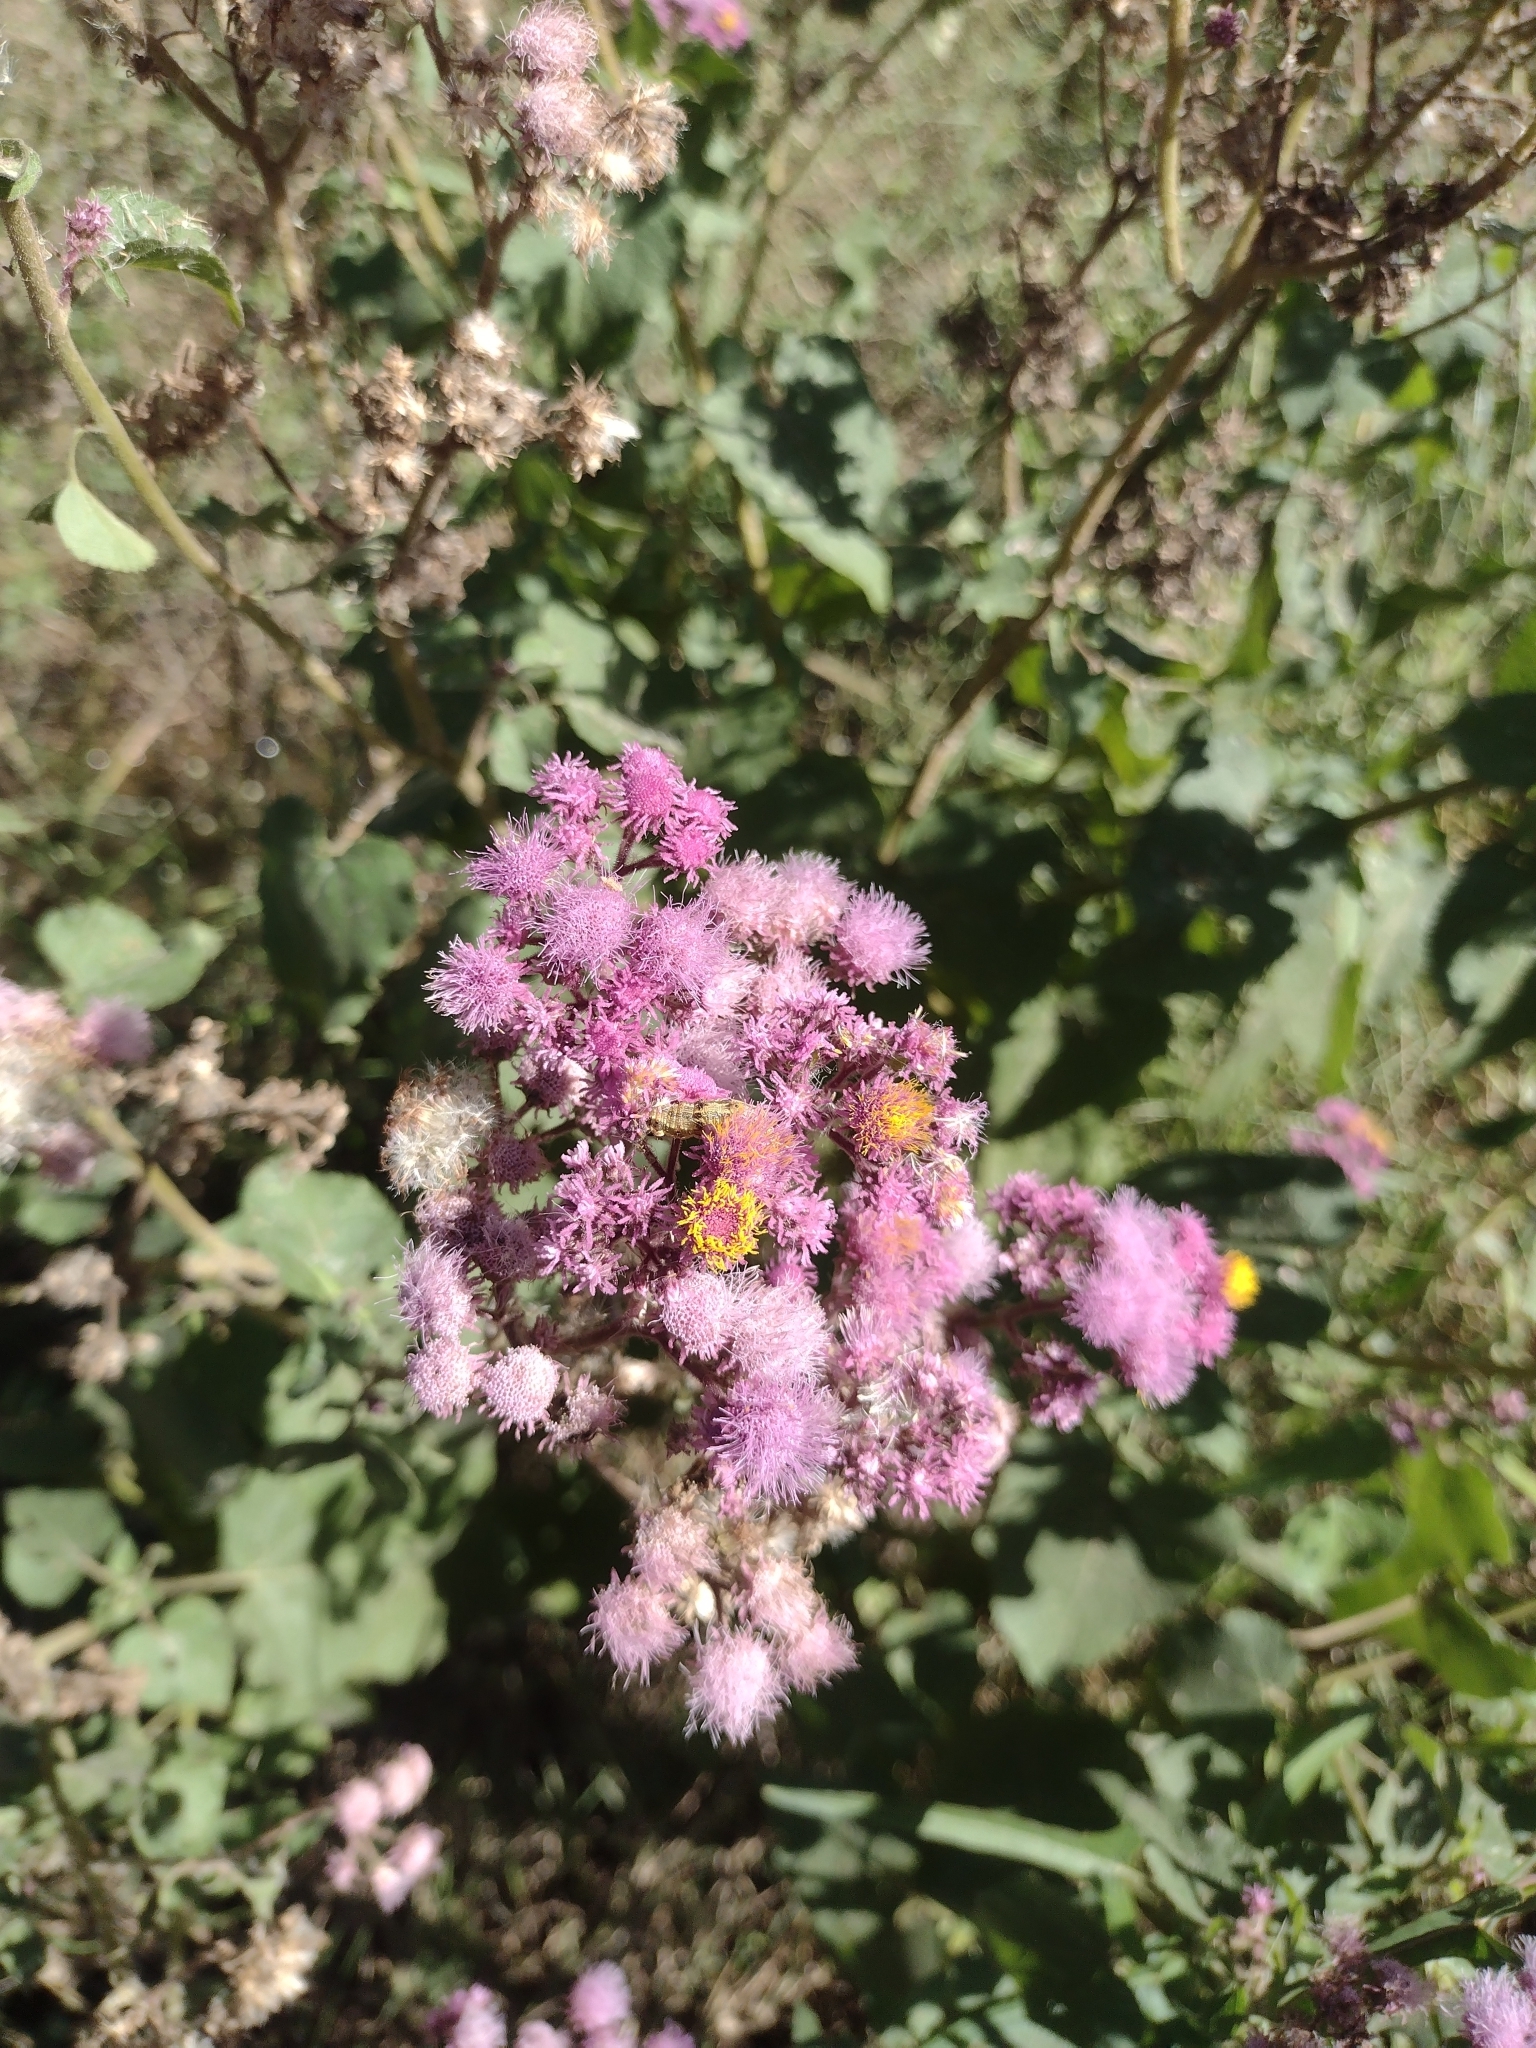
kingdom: Plantae
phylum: Tracheophyta
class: Magnoliopsida
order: Asterales
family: Asteraceae
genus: Urolepis
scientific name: Urolepis hecatantha
